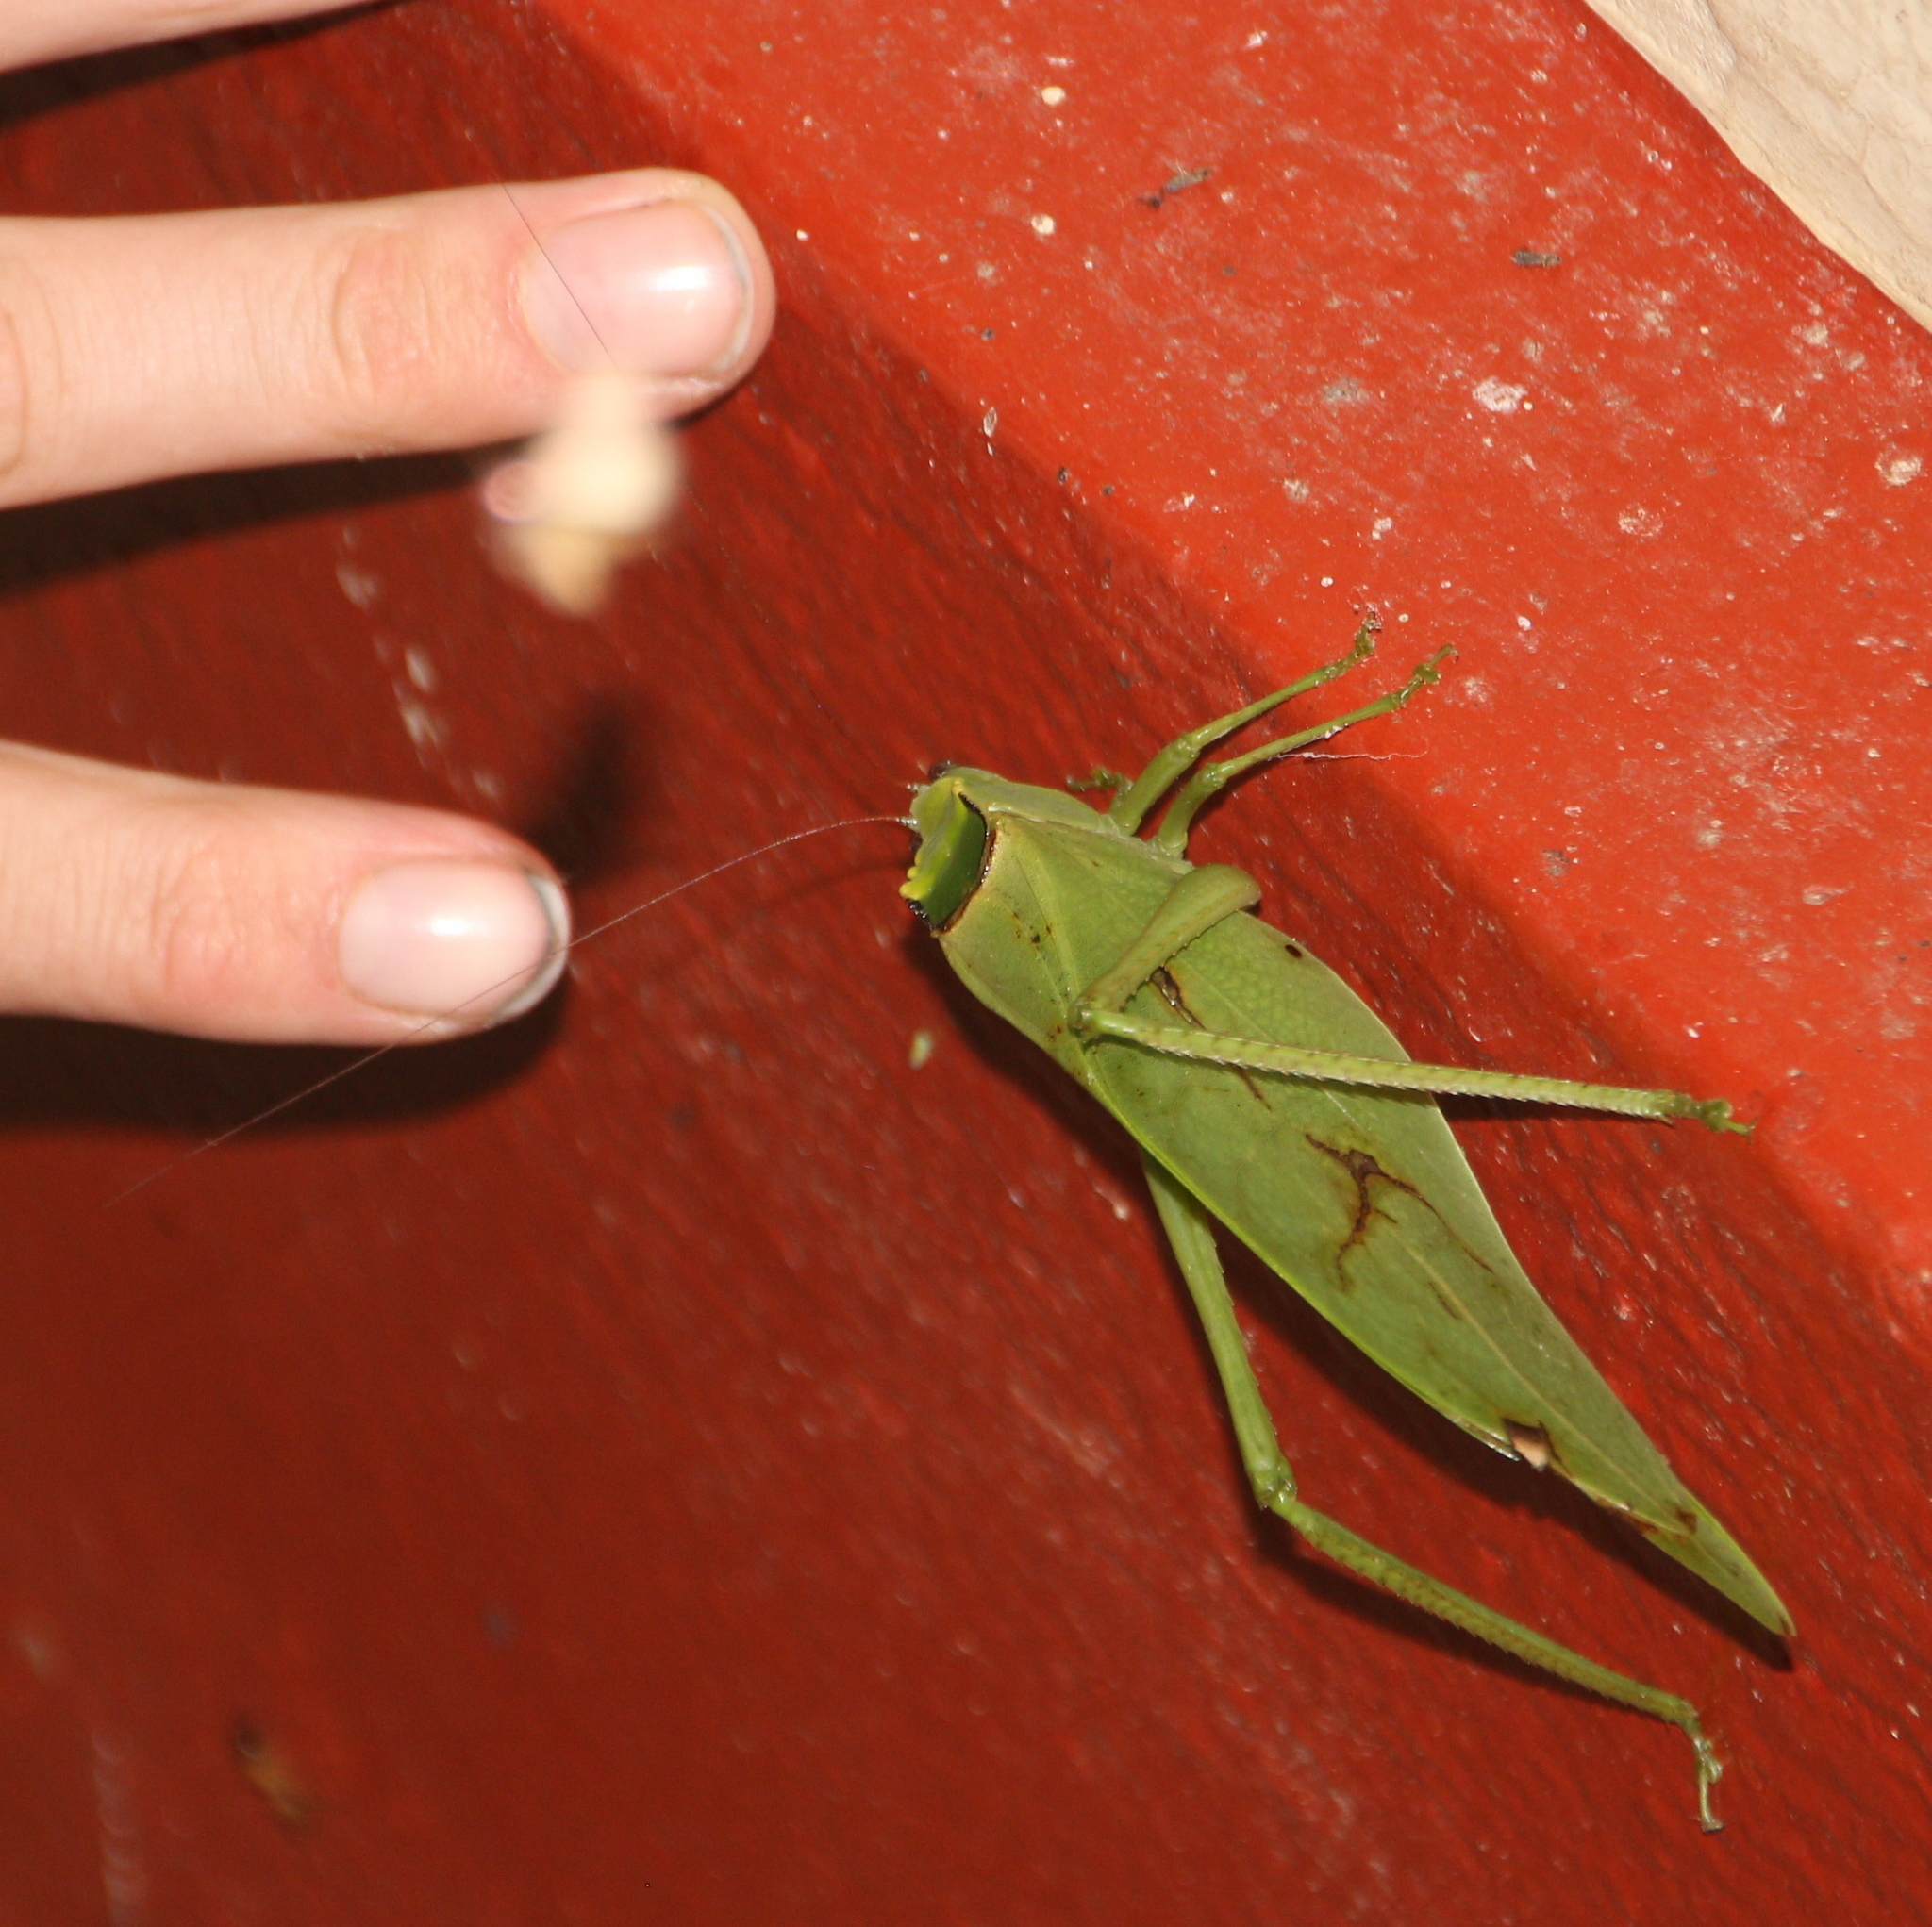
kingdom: Animalia
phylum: Arthropoda
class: Insecta
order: Orthoptera
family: Tettigoniidae
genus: Stilpnochlora
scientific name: Stilpnochlora incisa
